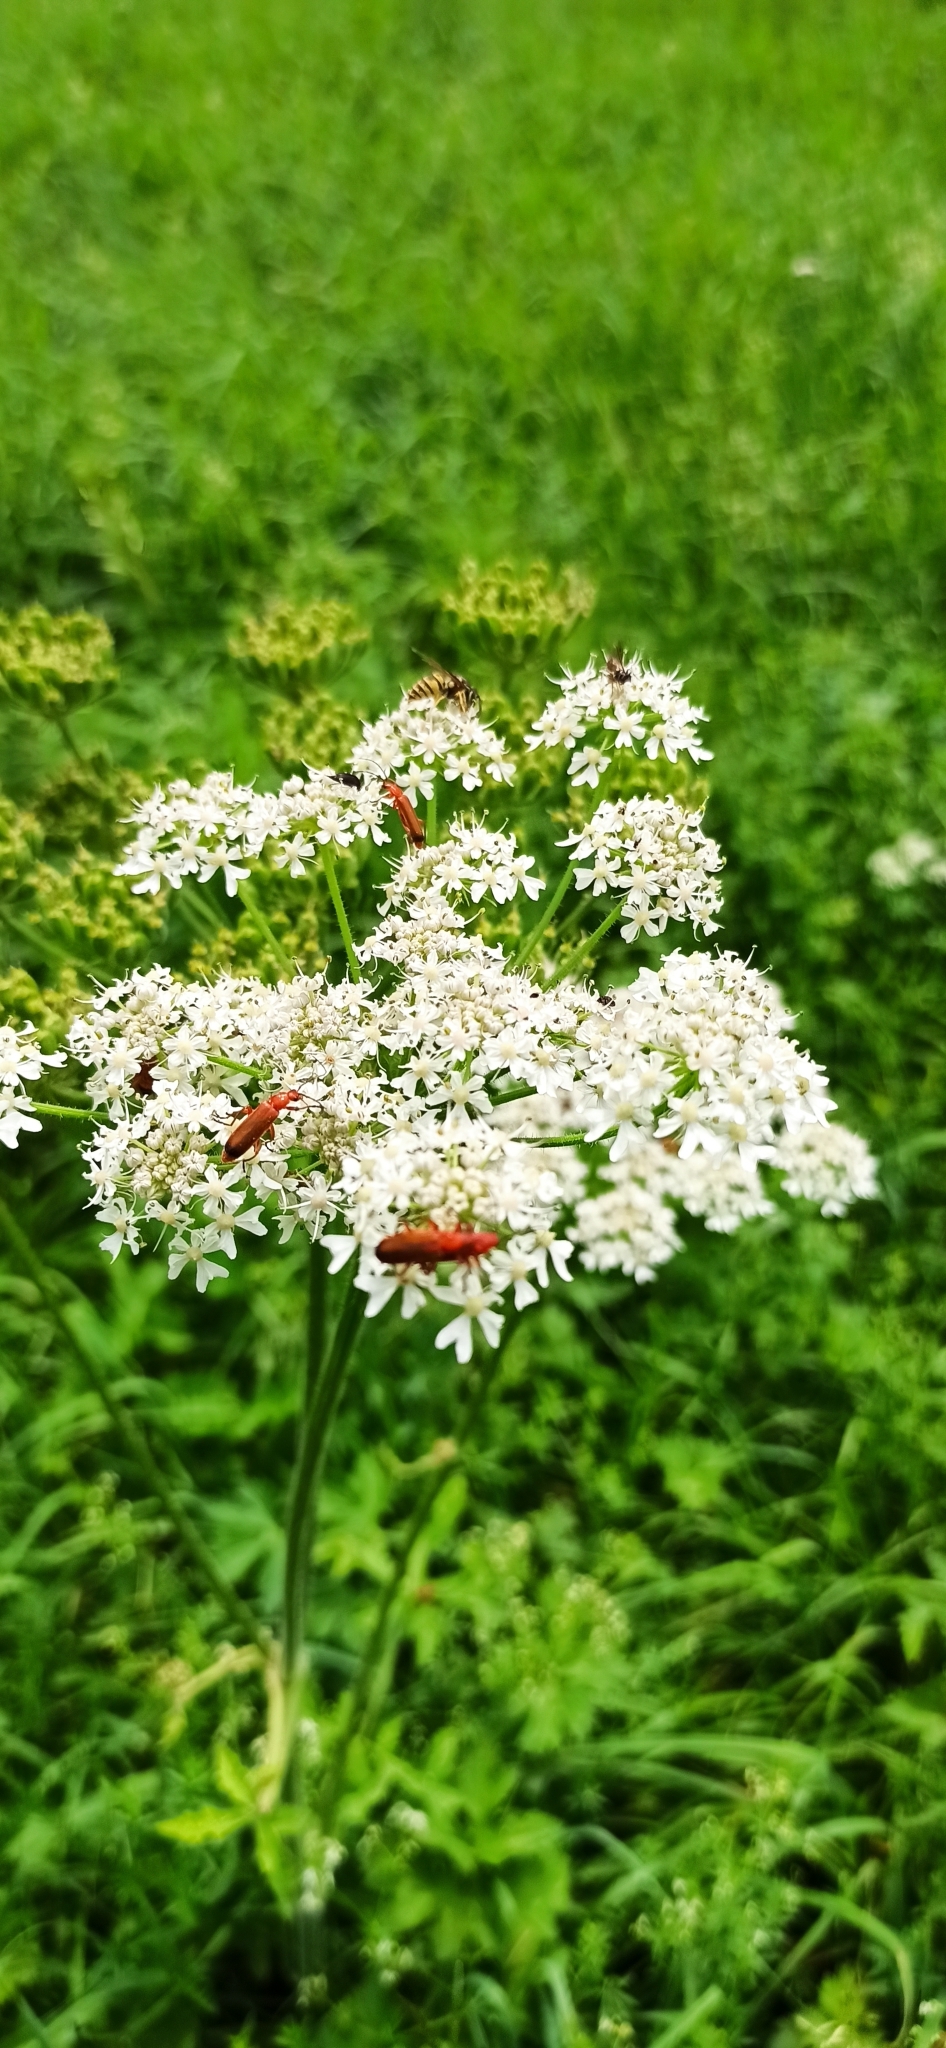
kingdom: Animalia
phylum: Arthropoda
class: Insecta
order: Coleoptera
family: Cantharidae
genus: Rhagonycha
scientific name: Rhagonycha fulva
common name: Common red soldier beetle
